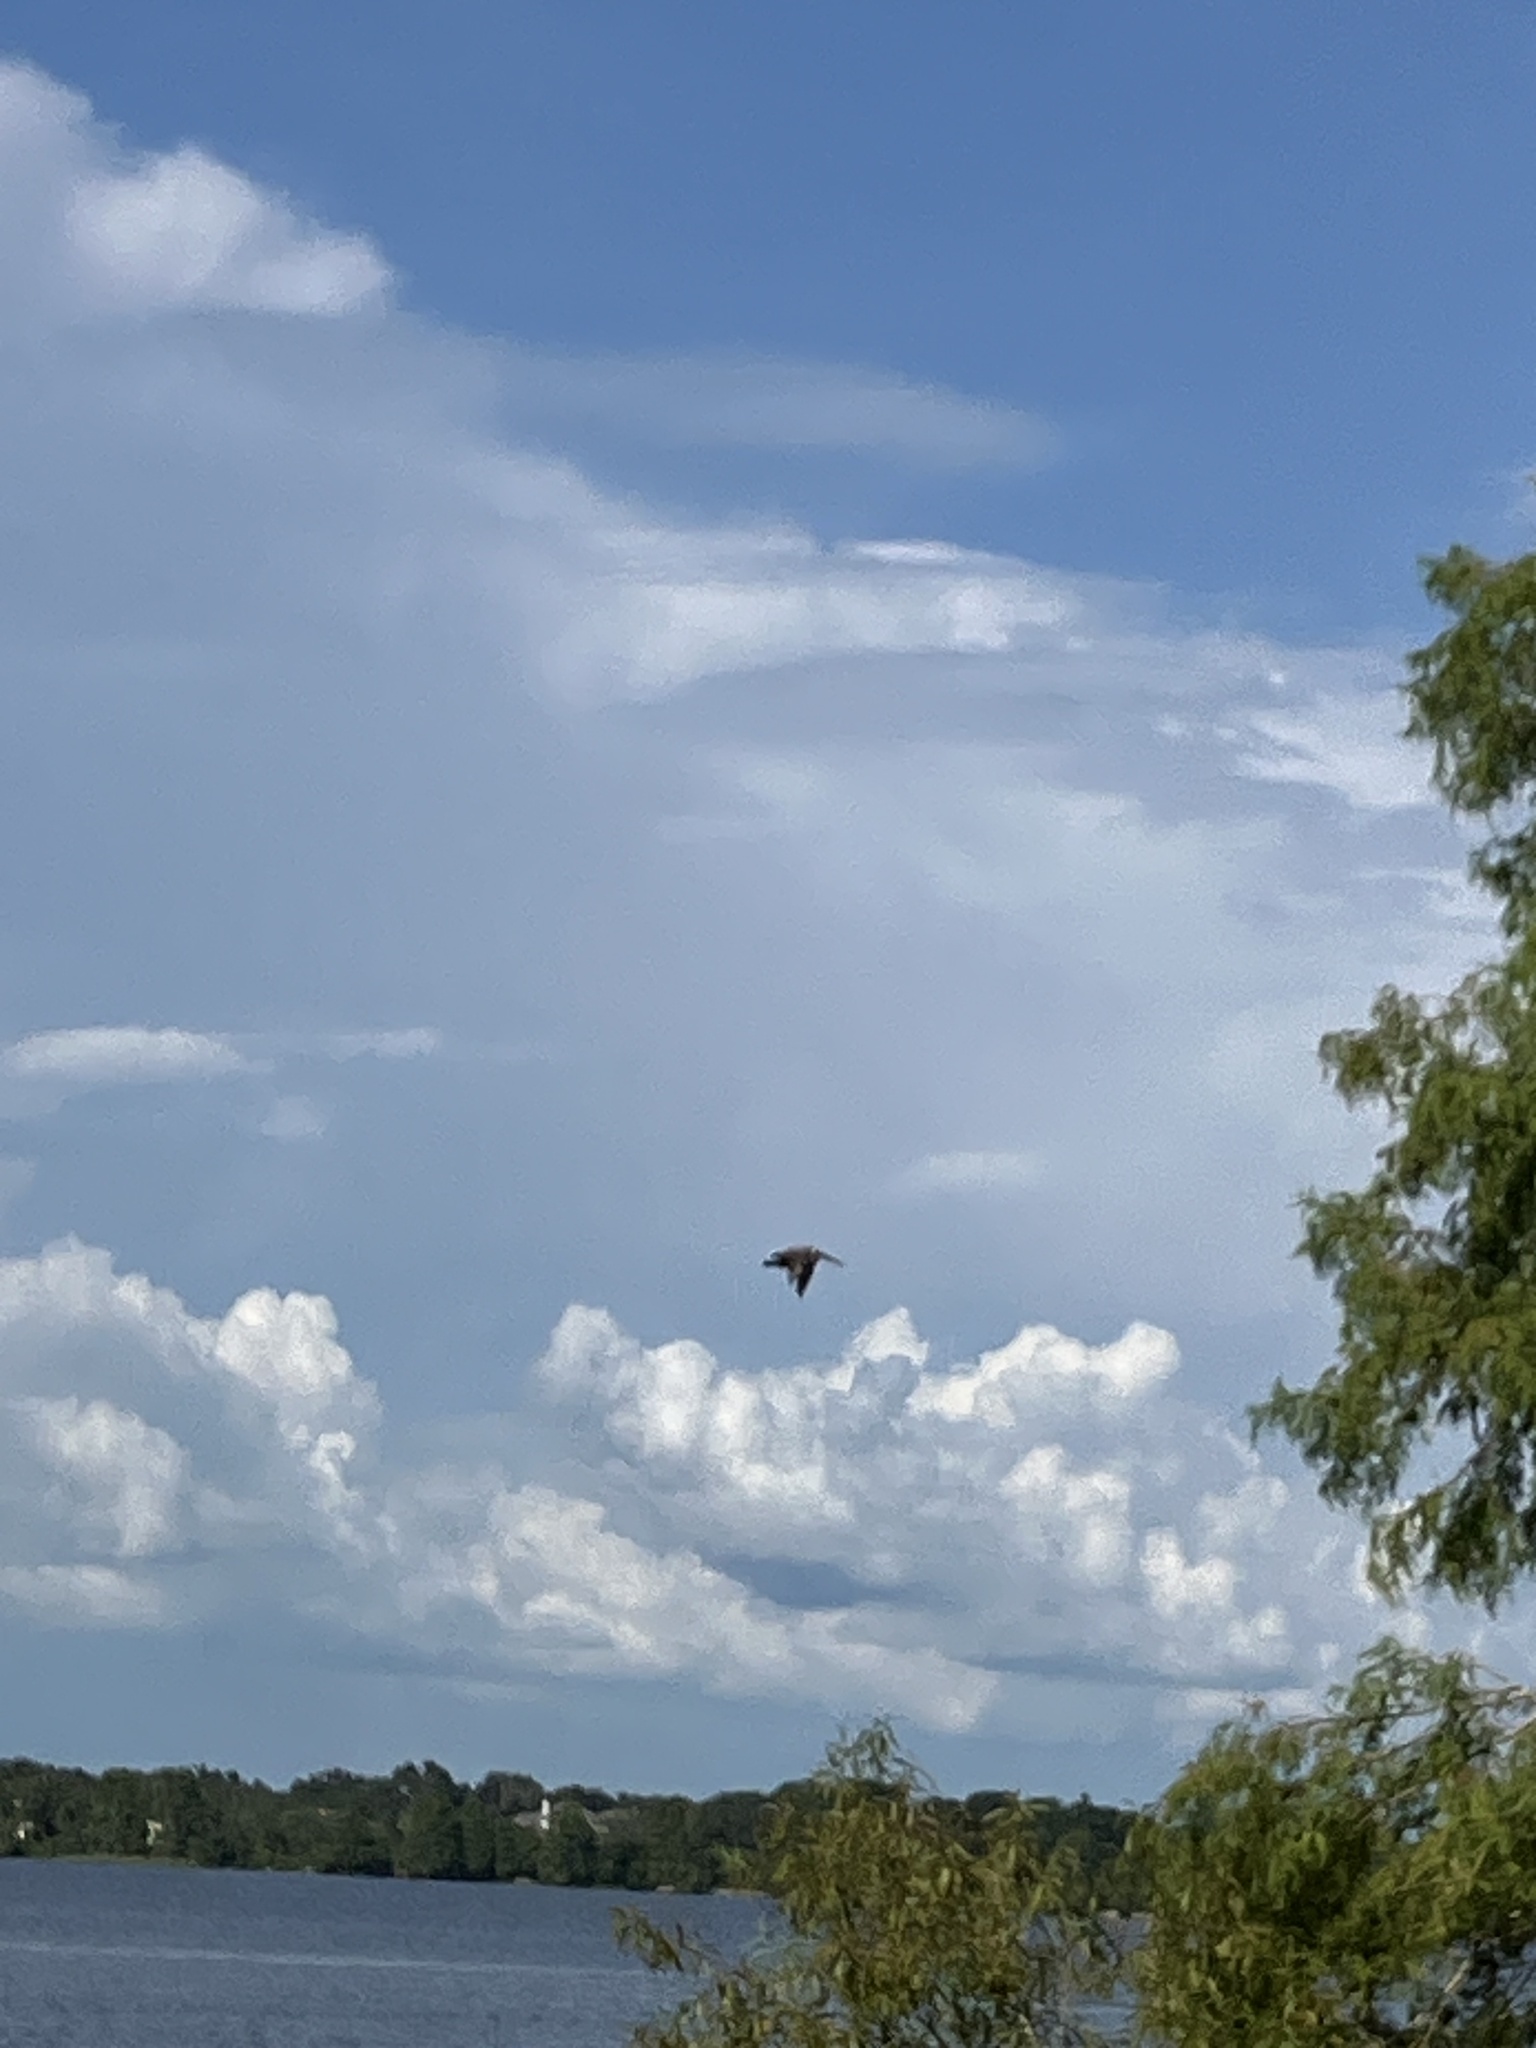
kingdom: Animalia
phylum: Chordata
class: Aves
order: Pelecaniformes
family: Pelecanidae
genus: Pelecanus
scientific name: Pelecanus occidentalis
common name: Brown pelican
